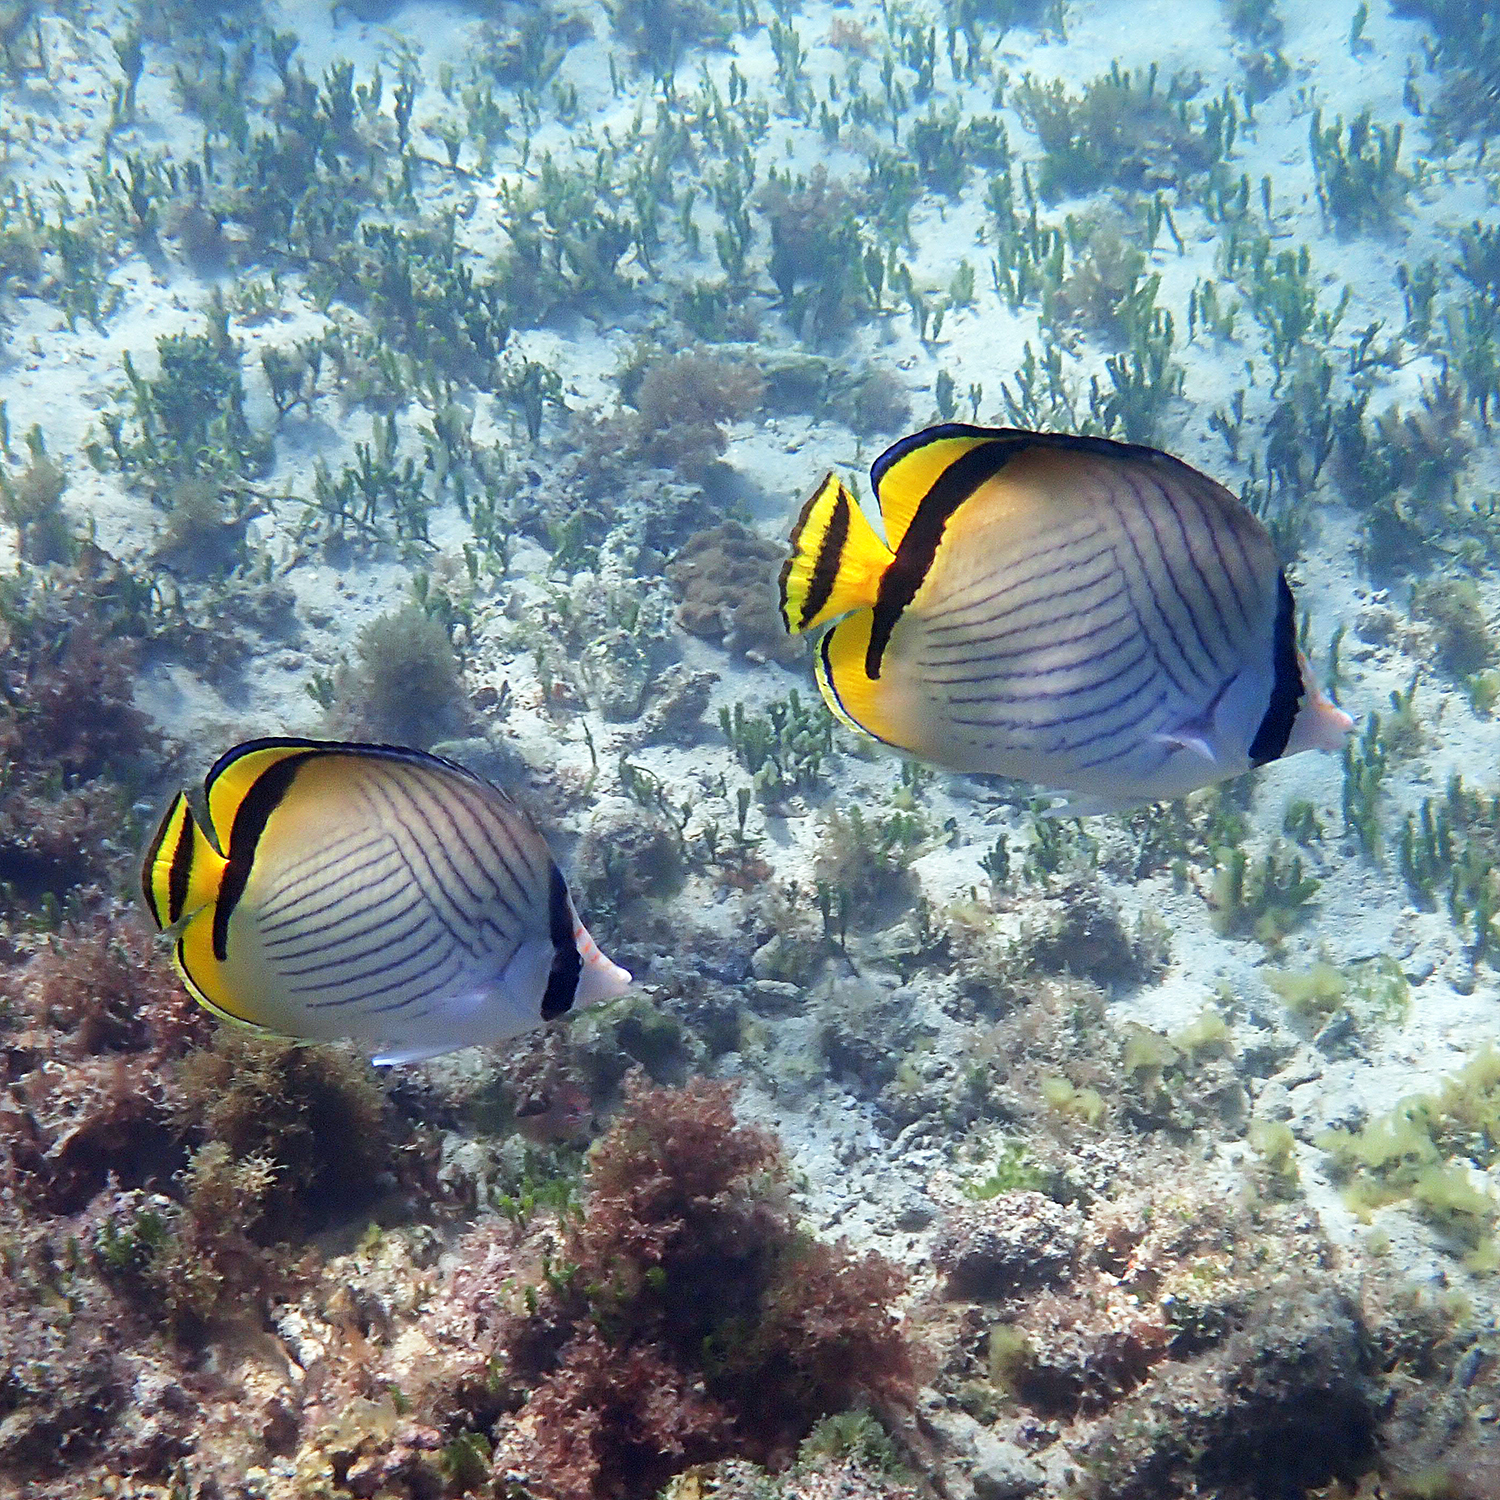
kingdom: Animalia
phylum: Chordata
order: Perciformes
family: Chaetodontidae
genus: Chaetodon
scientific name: Chaetodon vagabundus
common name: Vagabond butterflyfish
